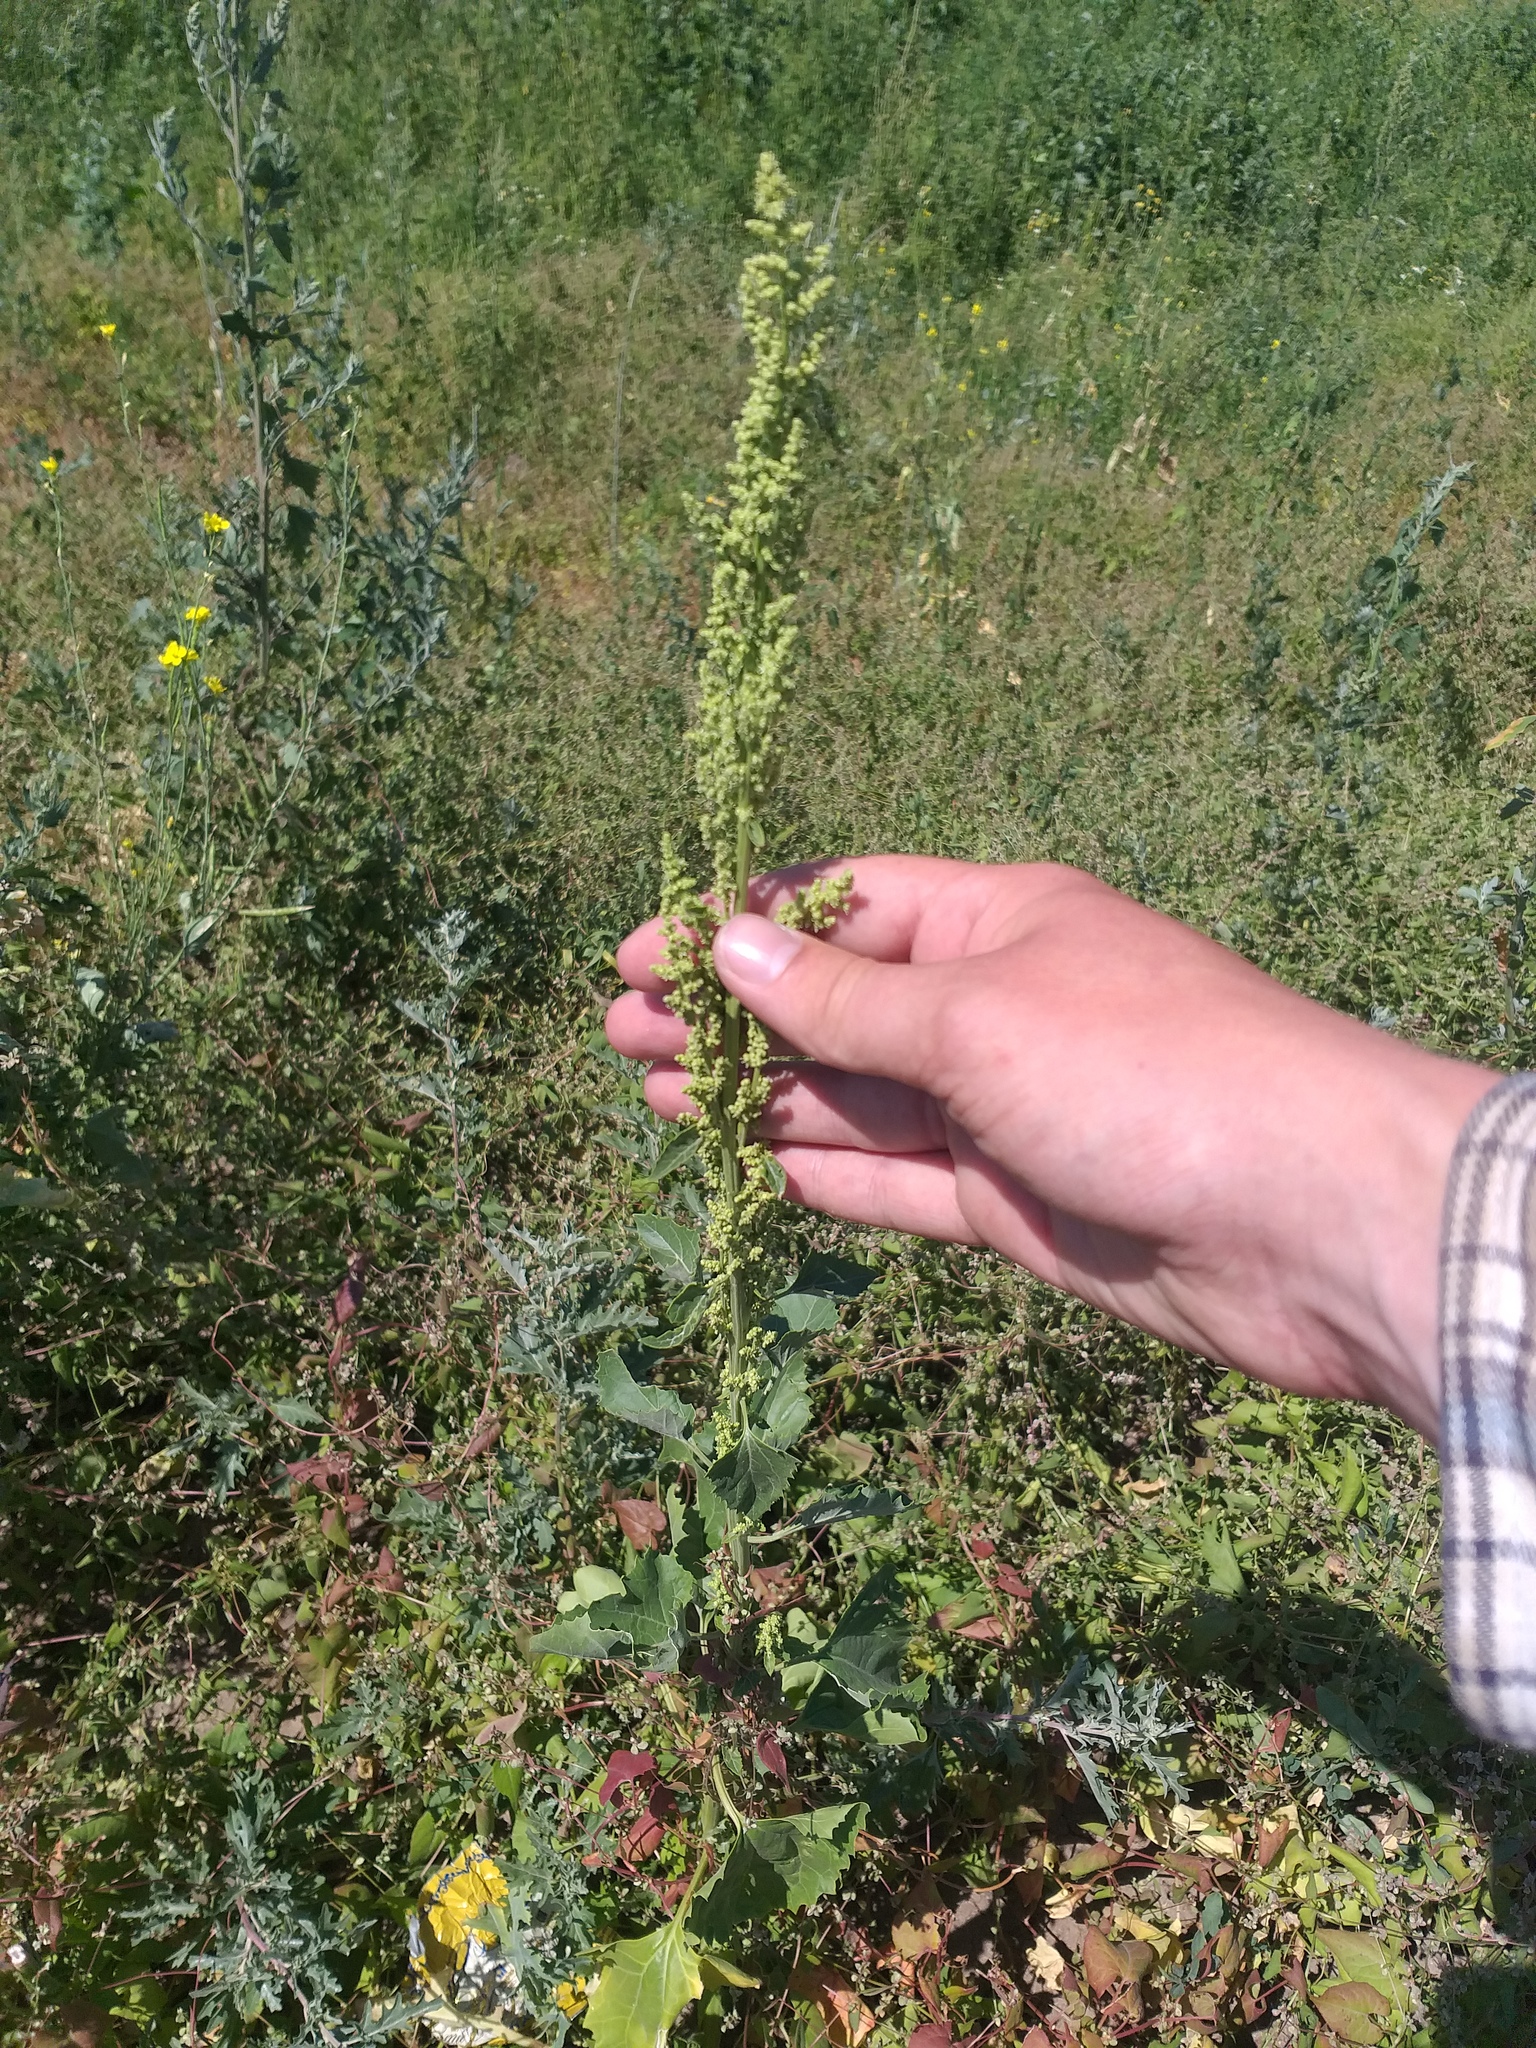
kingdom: Plantae
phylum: Tracheophyta
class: Magnoliopsida
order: Caryophyllales
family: Amaranthaceae
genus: Oxybasis
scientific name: Oxybasis urbica
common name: City goosefoot
